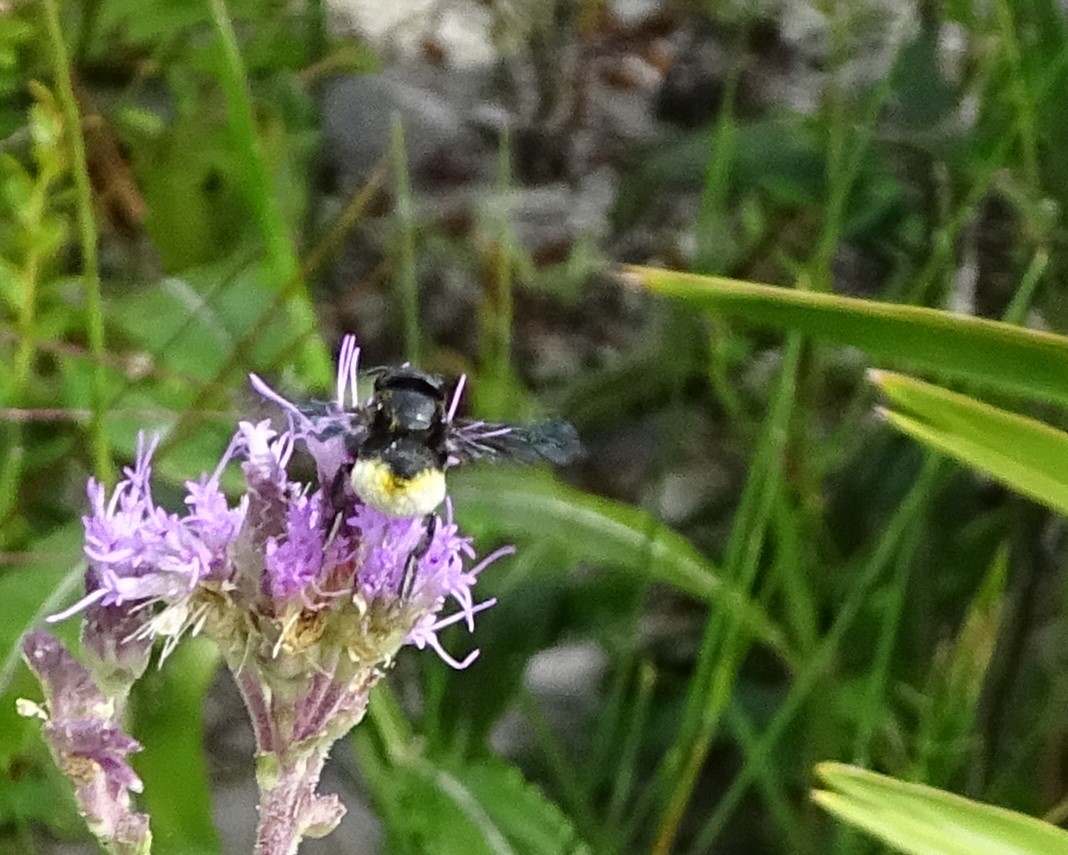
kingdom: Animalia
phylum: Arthropoda
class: Insecta
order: Hymenoptera
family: Megachilidae
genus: Megachile
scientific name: Megachile xylocopoides
